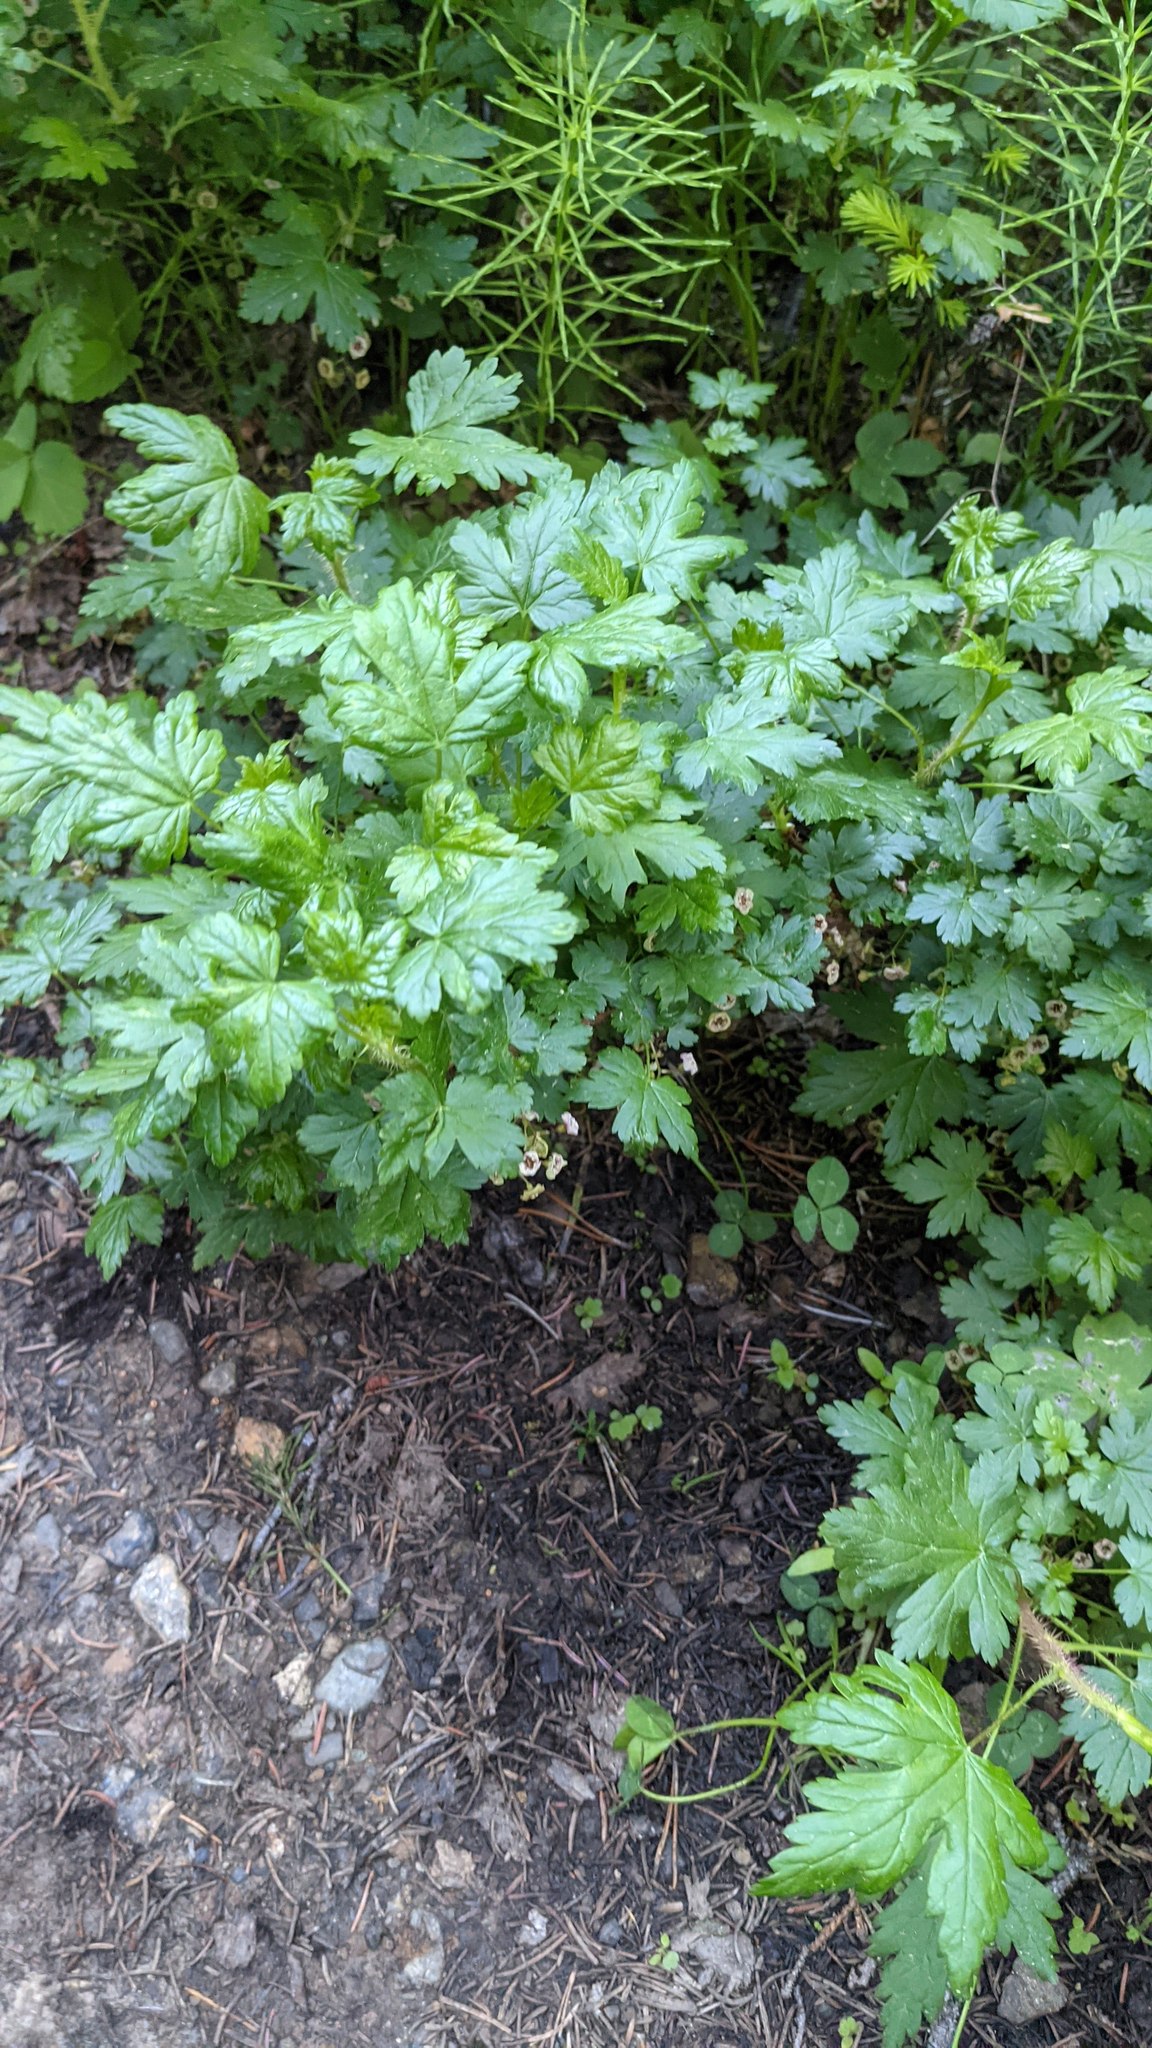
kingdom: Plantae
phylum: Tracheophyta
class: Magnoliopsida
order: Saxifragales
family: Grossulariaceae
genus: Ribes
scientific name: Ribes lacustre
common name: Black gooseberry
